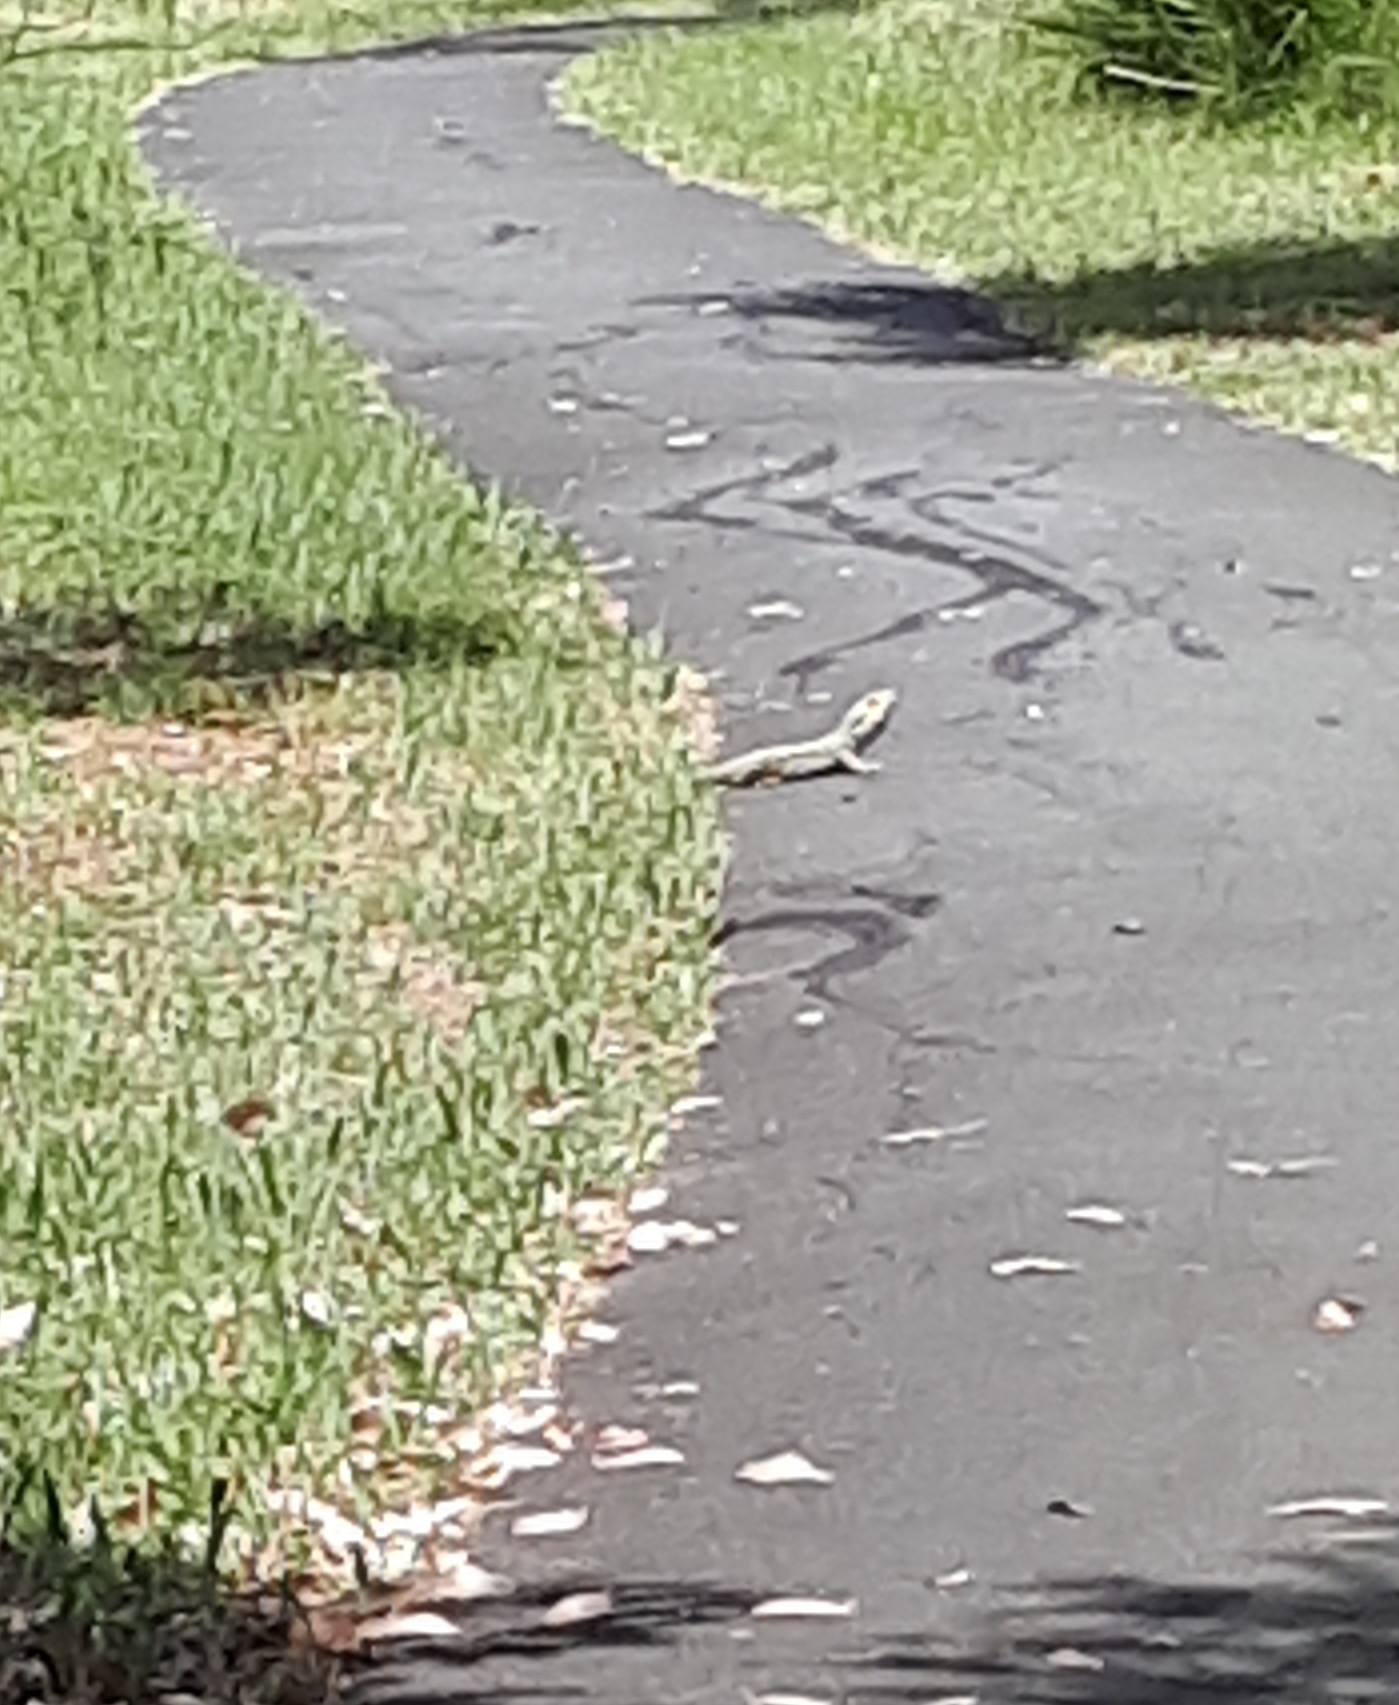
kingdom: Animalia
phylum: Chordata
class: Squamata
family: Agamidae
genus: Pogona
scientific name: Pogona barbata
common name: Bearded dragon
